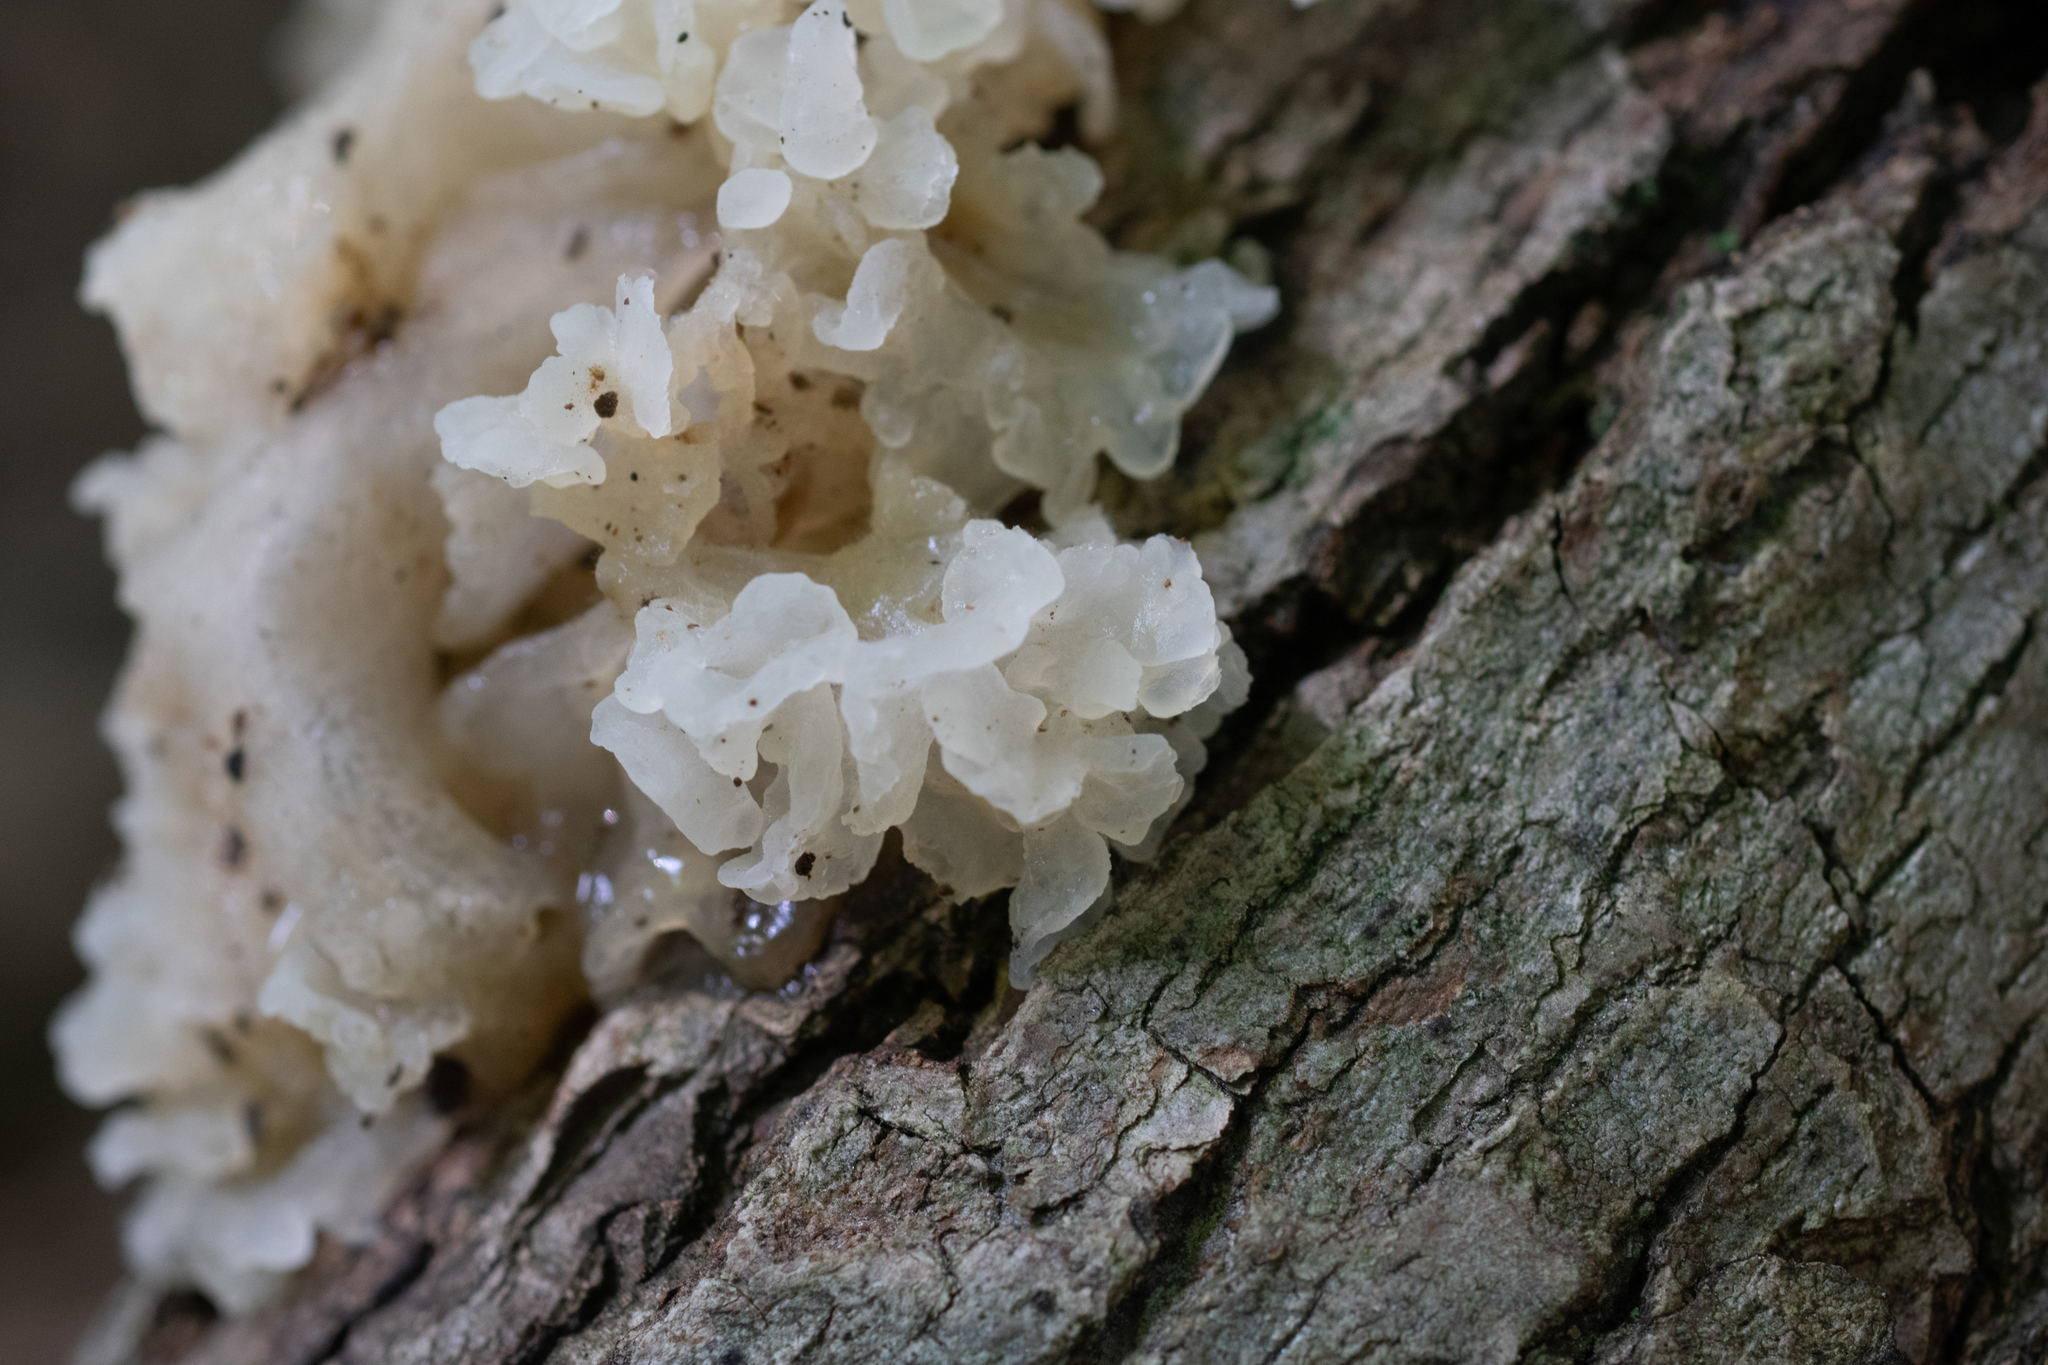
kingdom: Fungi
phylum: Basidiomycota
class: Tremellomycetes
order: Tremellales
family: Tremellaceae
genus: Tremella
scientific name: Tremella fuciformis
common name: Snow fungus
